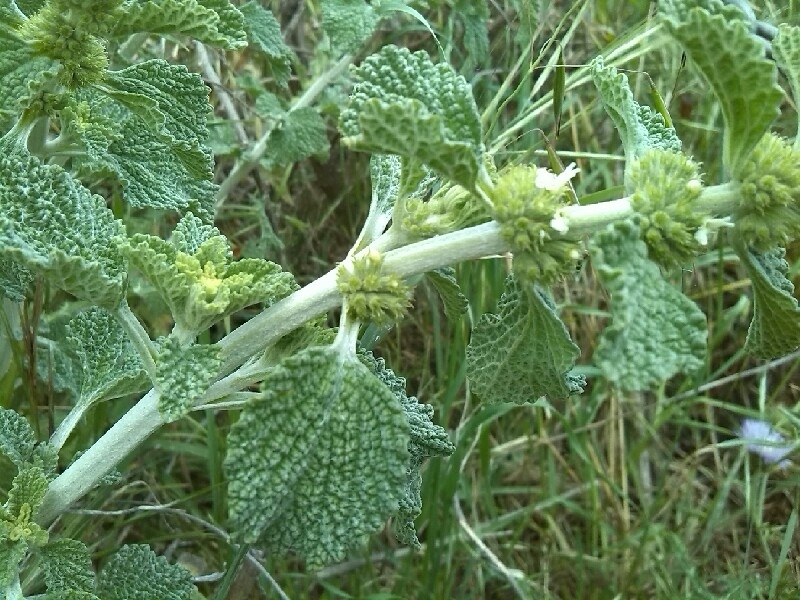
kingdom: Plantae
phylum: Tracheophyta
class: Magnoliopsida
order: Lamiales
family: Lamiaceae
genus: Marrubium
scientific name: Marrubium vulgare
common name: Horehound
